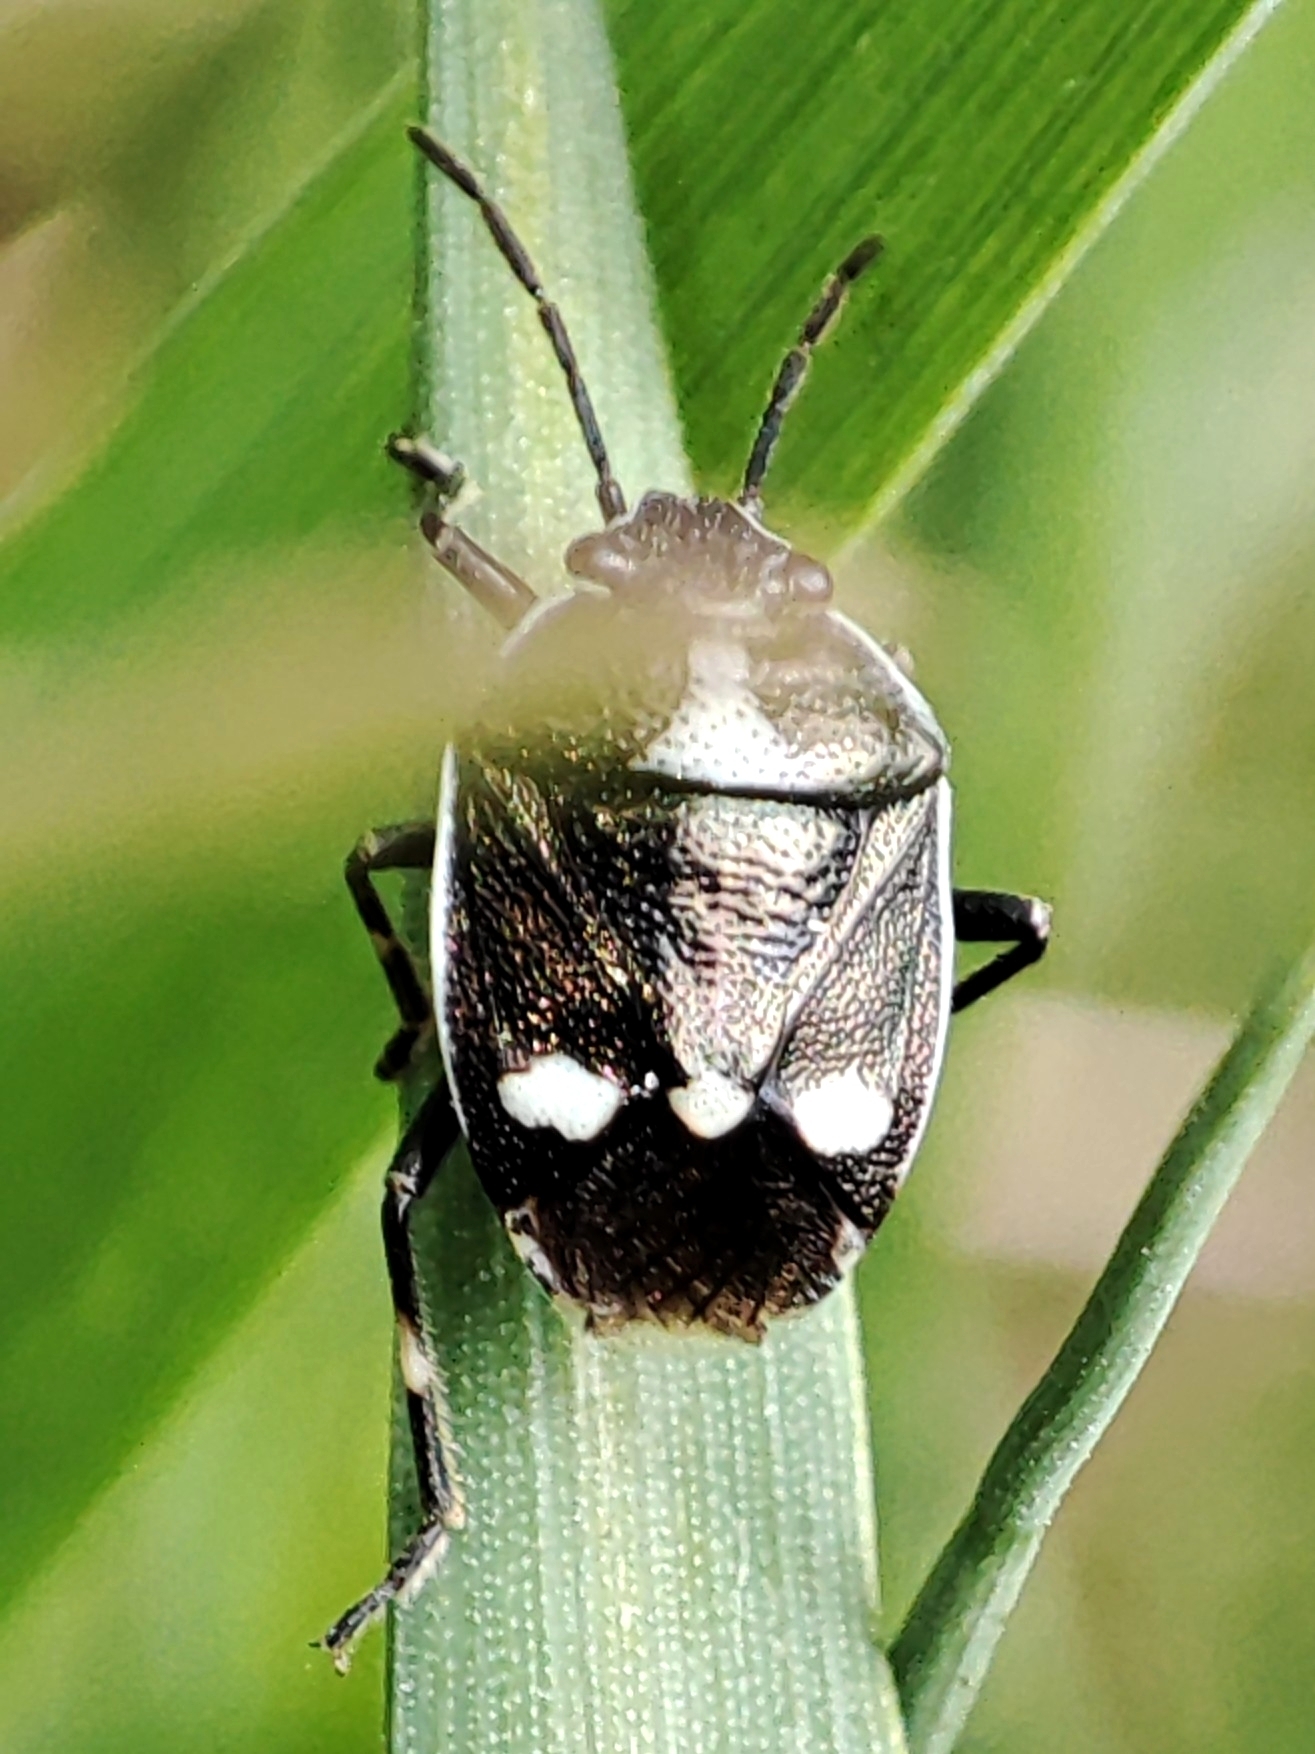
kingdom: Animalia
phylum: Arthropoda
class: Insecta
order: Hemiptera
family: Pentatomidae
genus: Eurydema
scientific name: Eurydema oleracea
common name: Cabbage bug
